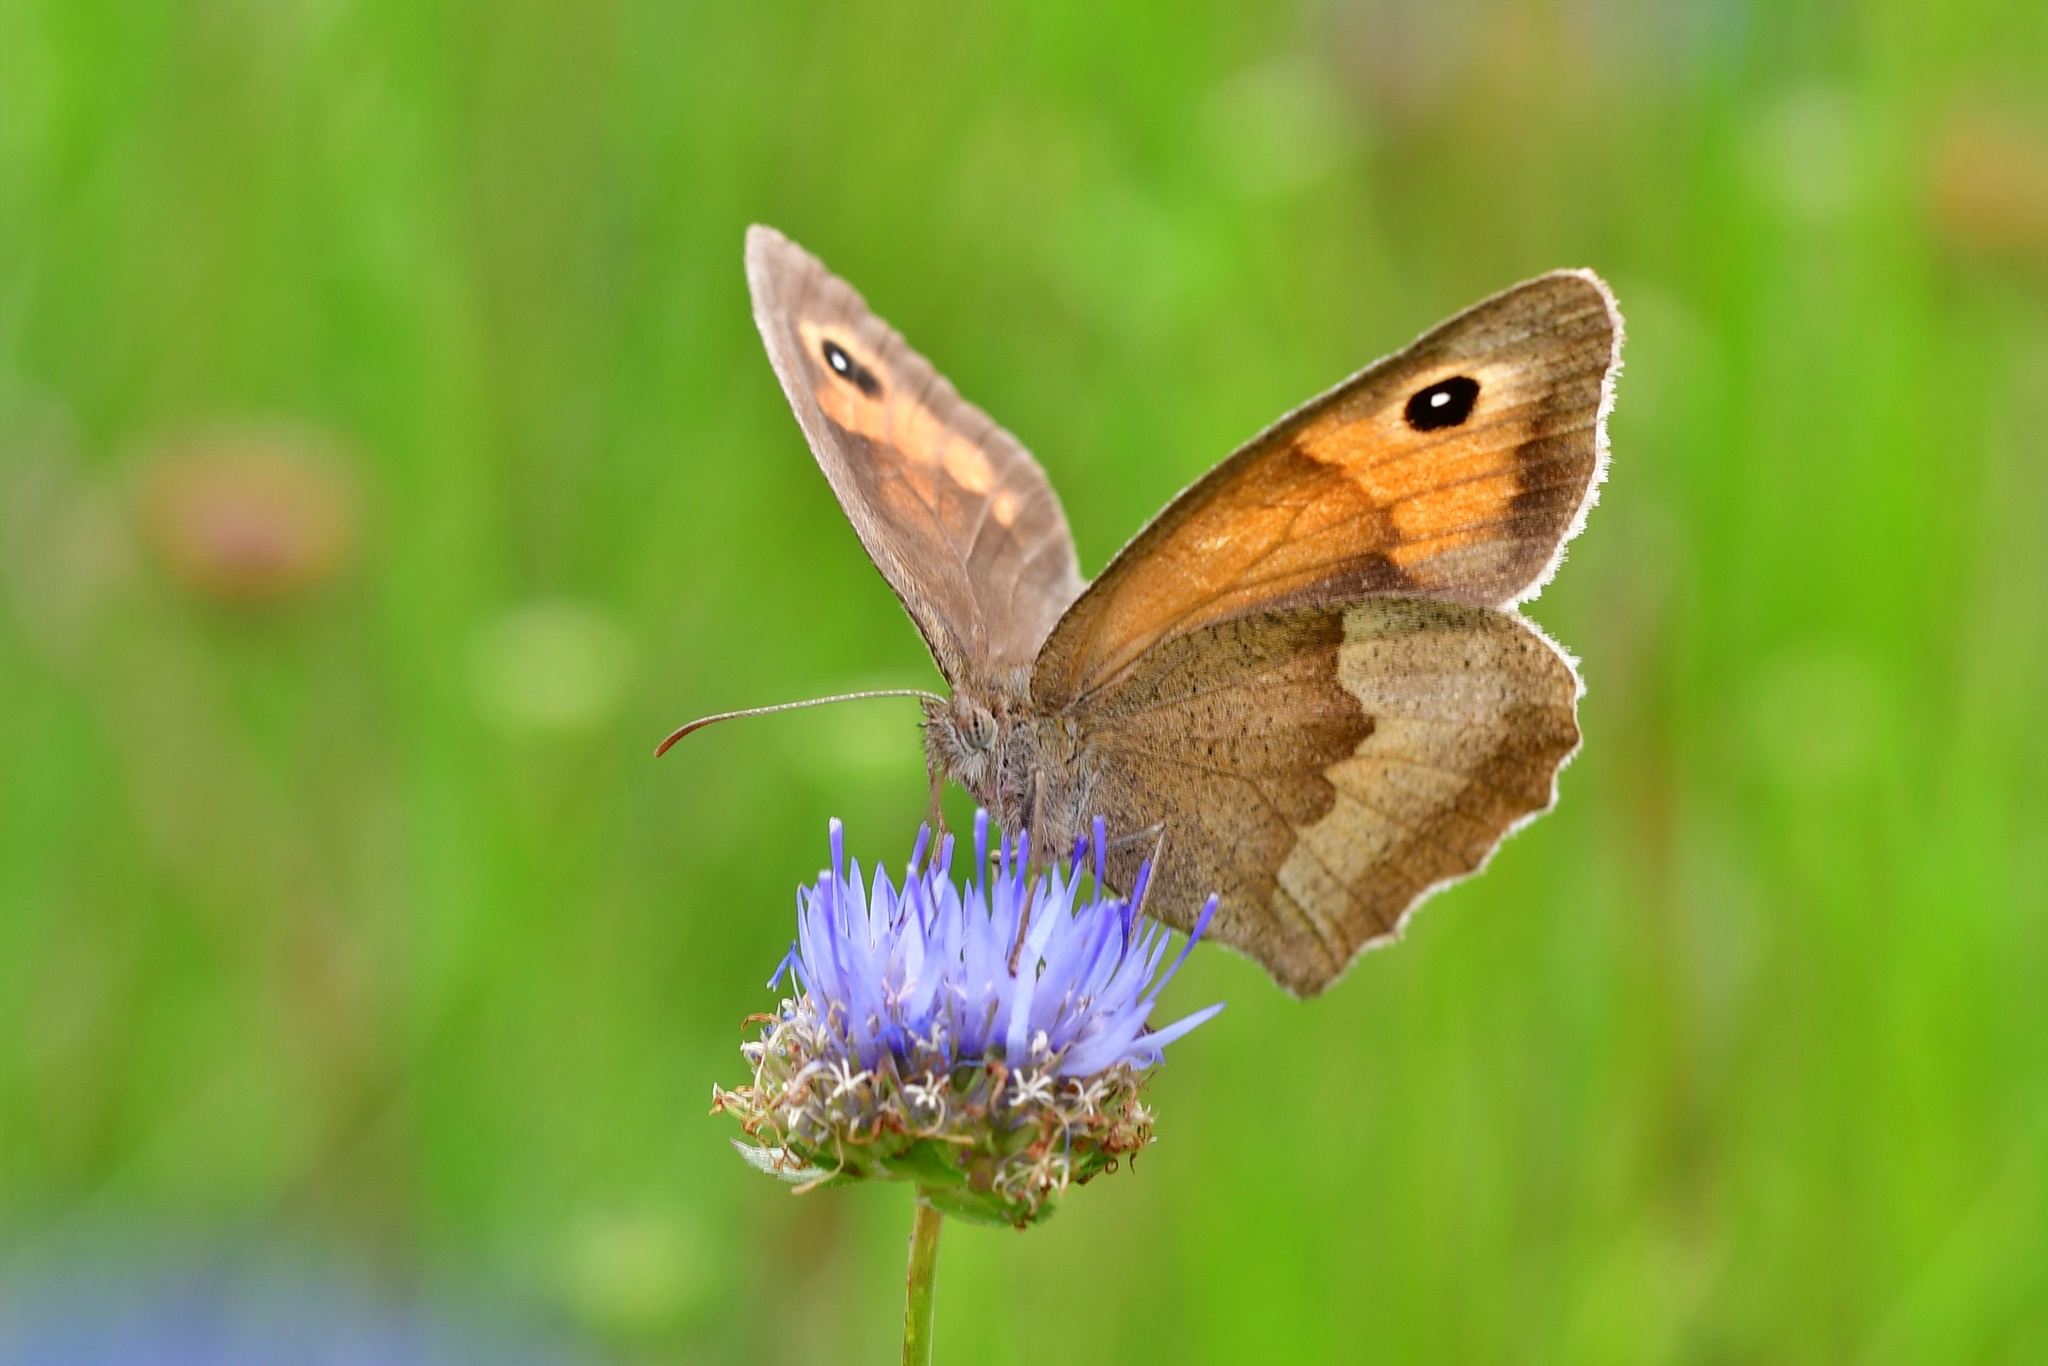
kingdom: Animalia
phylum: Arthropoda
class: Insecta
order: Lepidoptera
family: Nymphalidae
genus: Maniola
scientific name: Maniola jurtina
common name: Meadow brown
